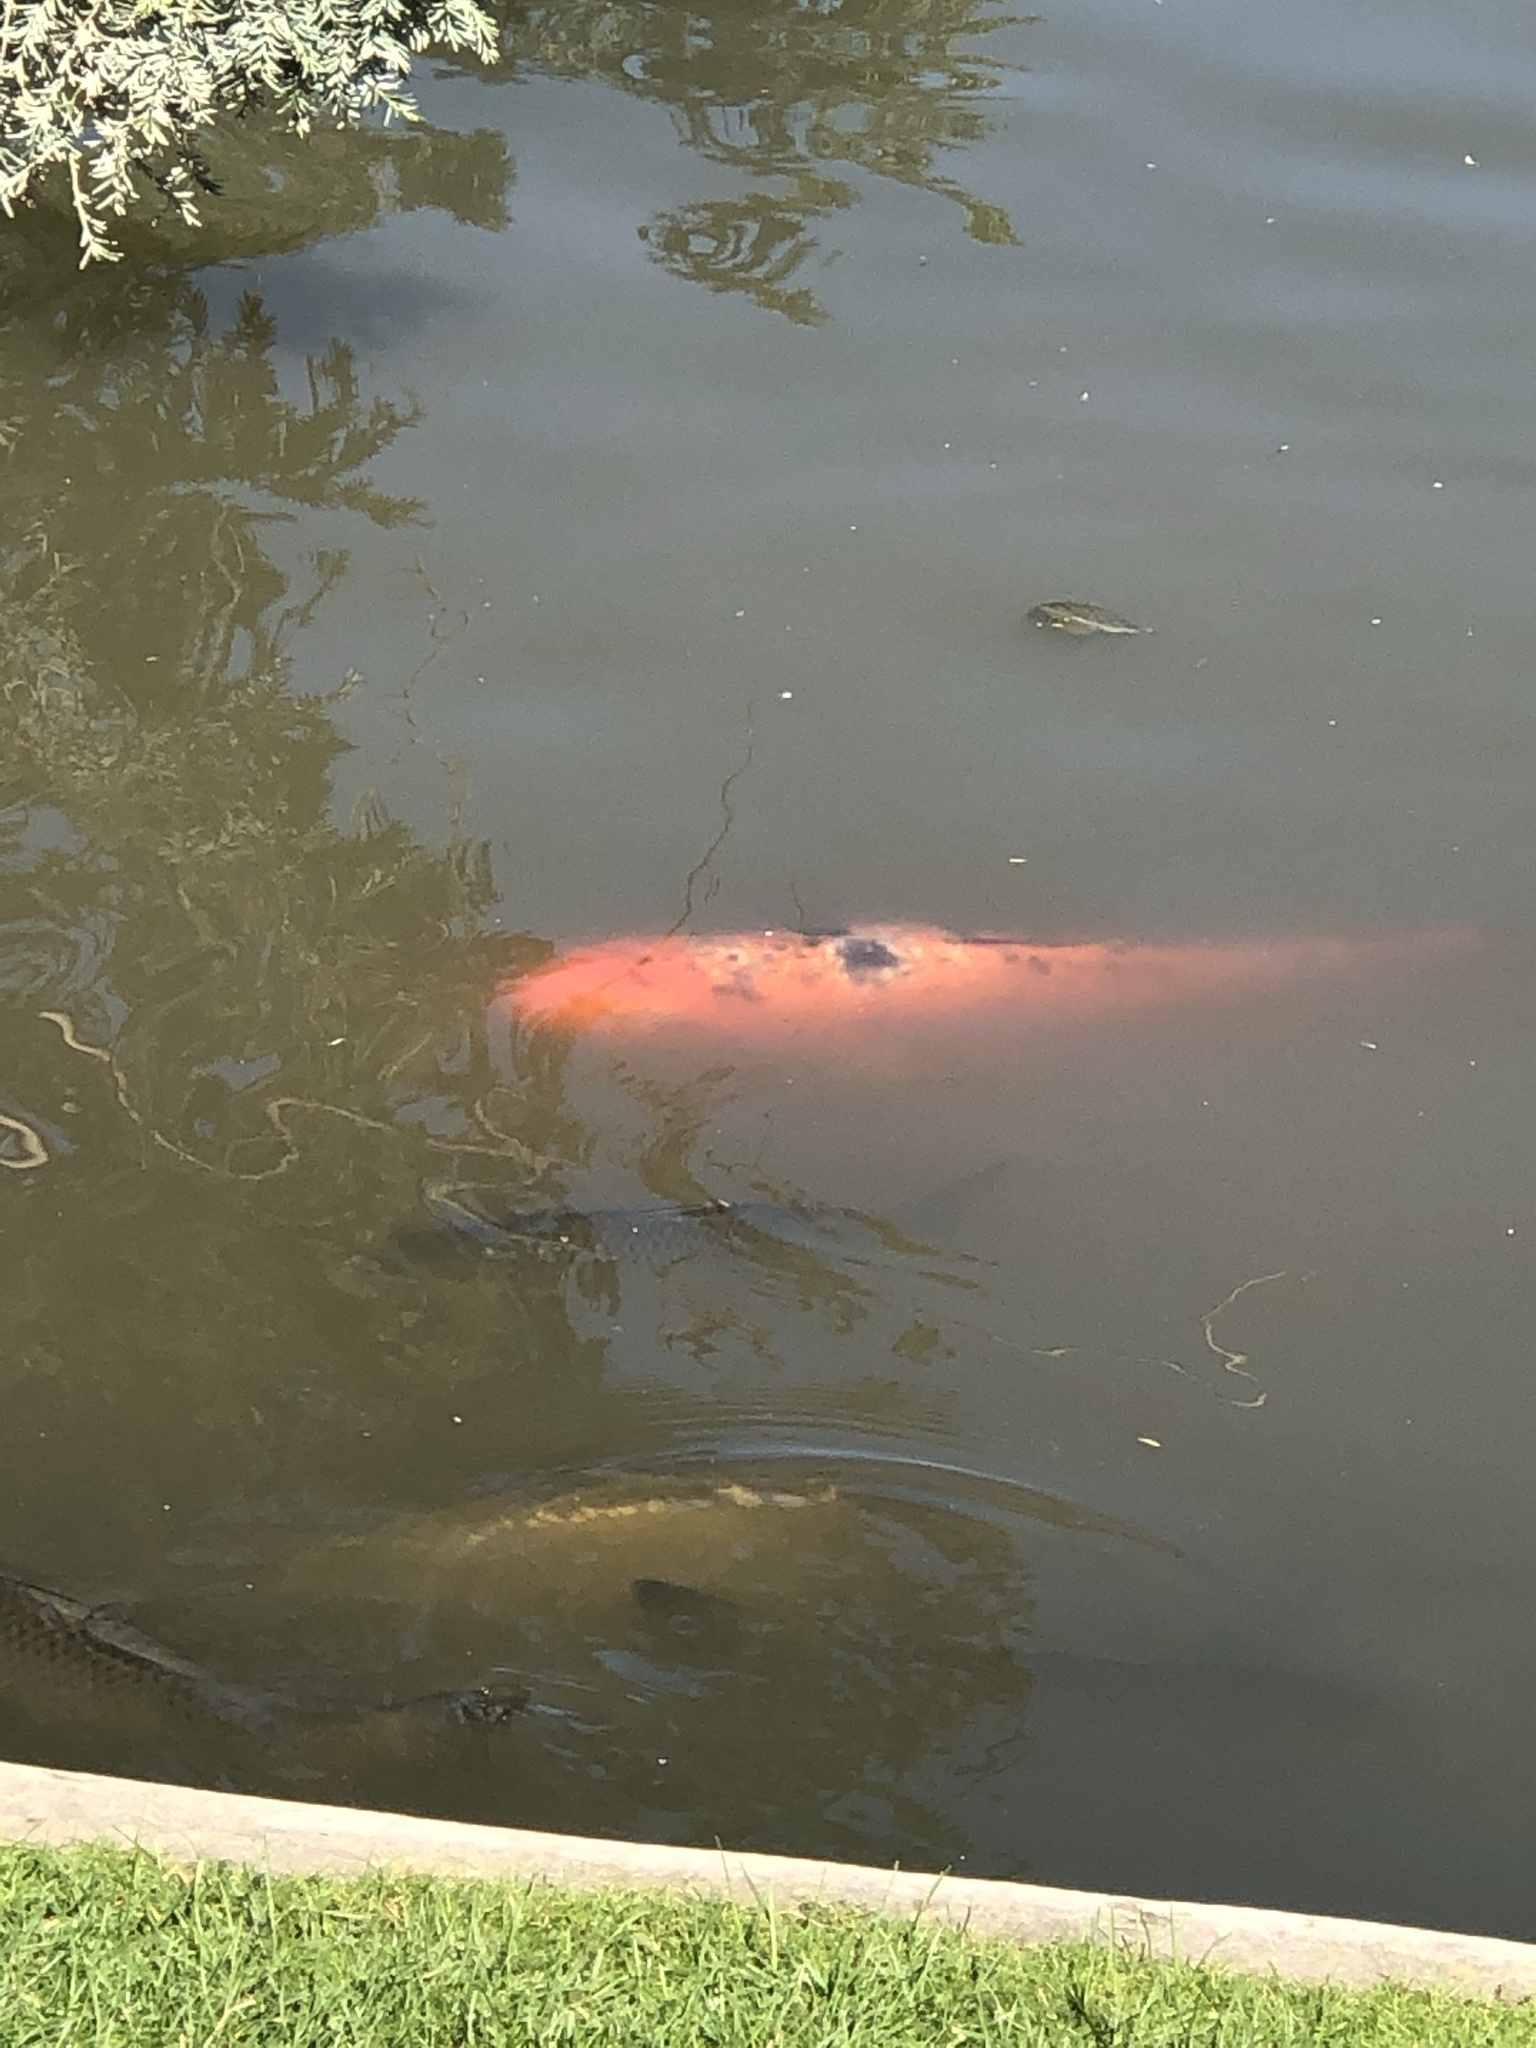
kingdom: Animalia
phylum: Chordata
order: Cypriniformes
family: Cyprinidae
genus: Cyprinus
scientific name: Cyprinus rubrofuscus
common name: Koi
